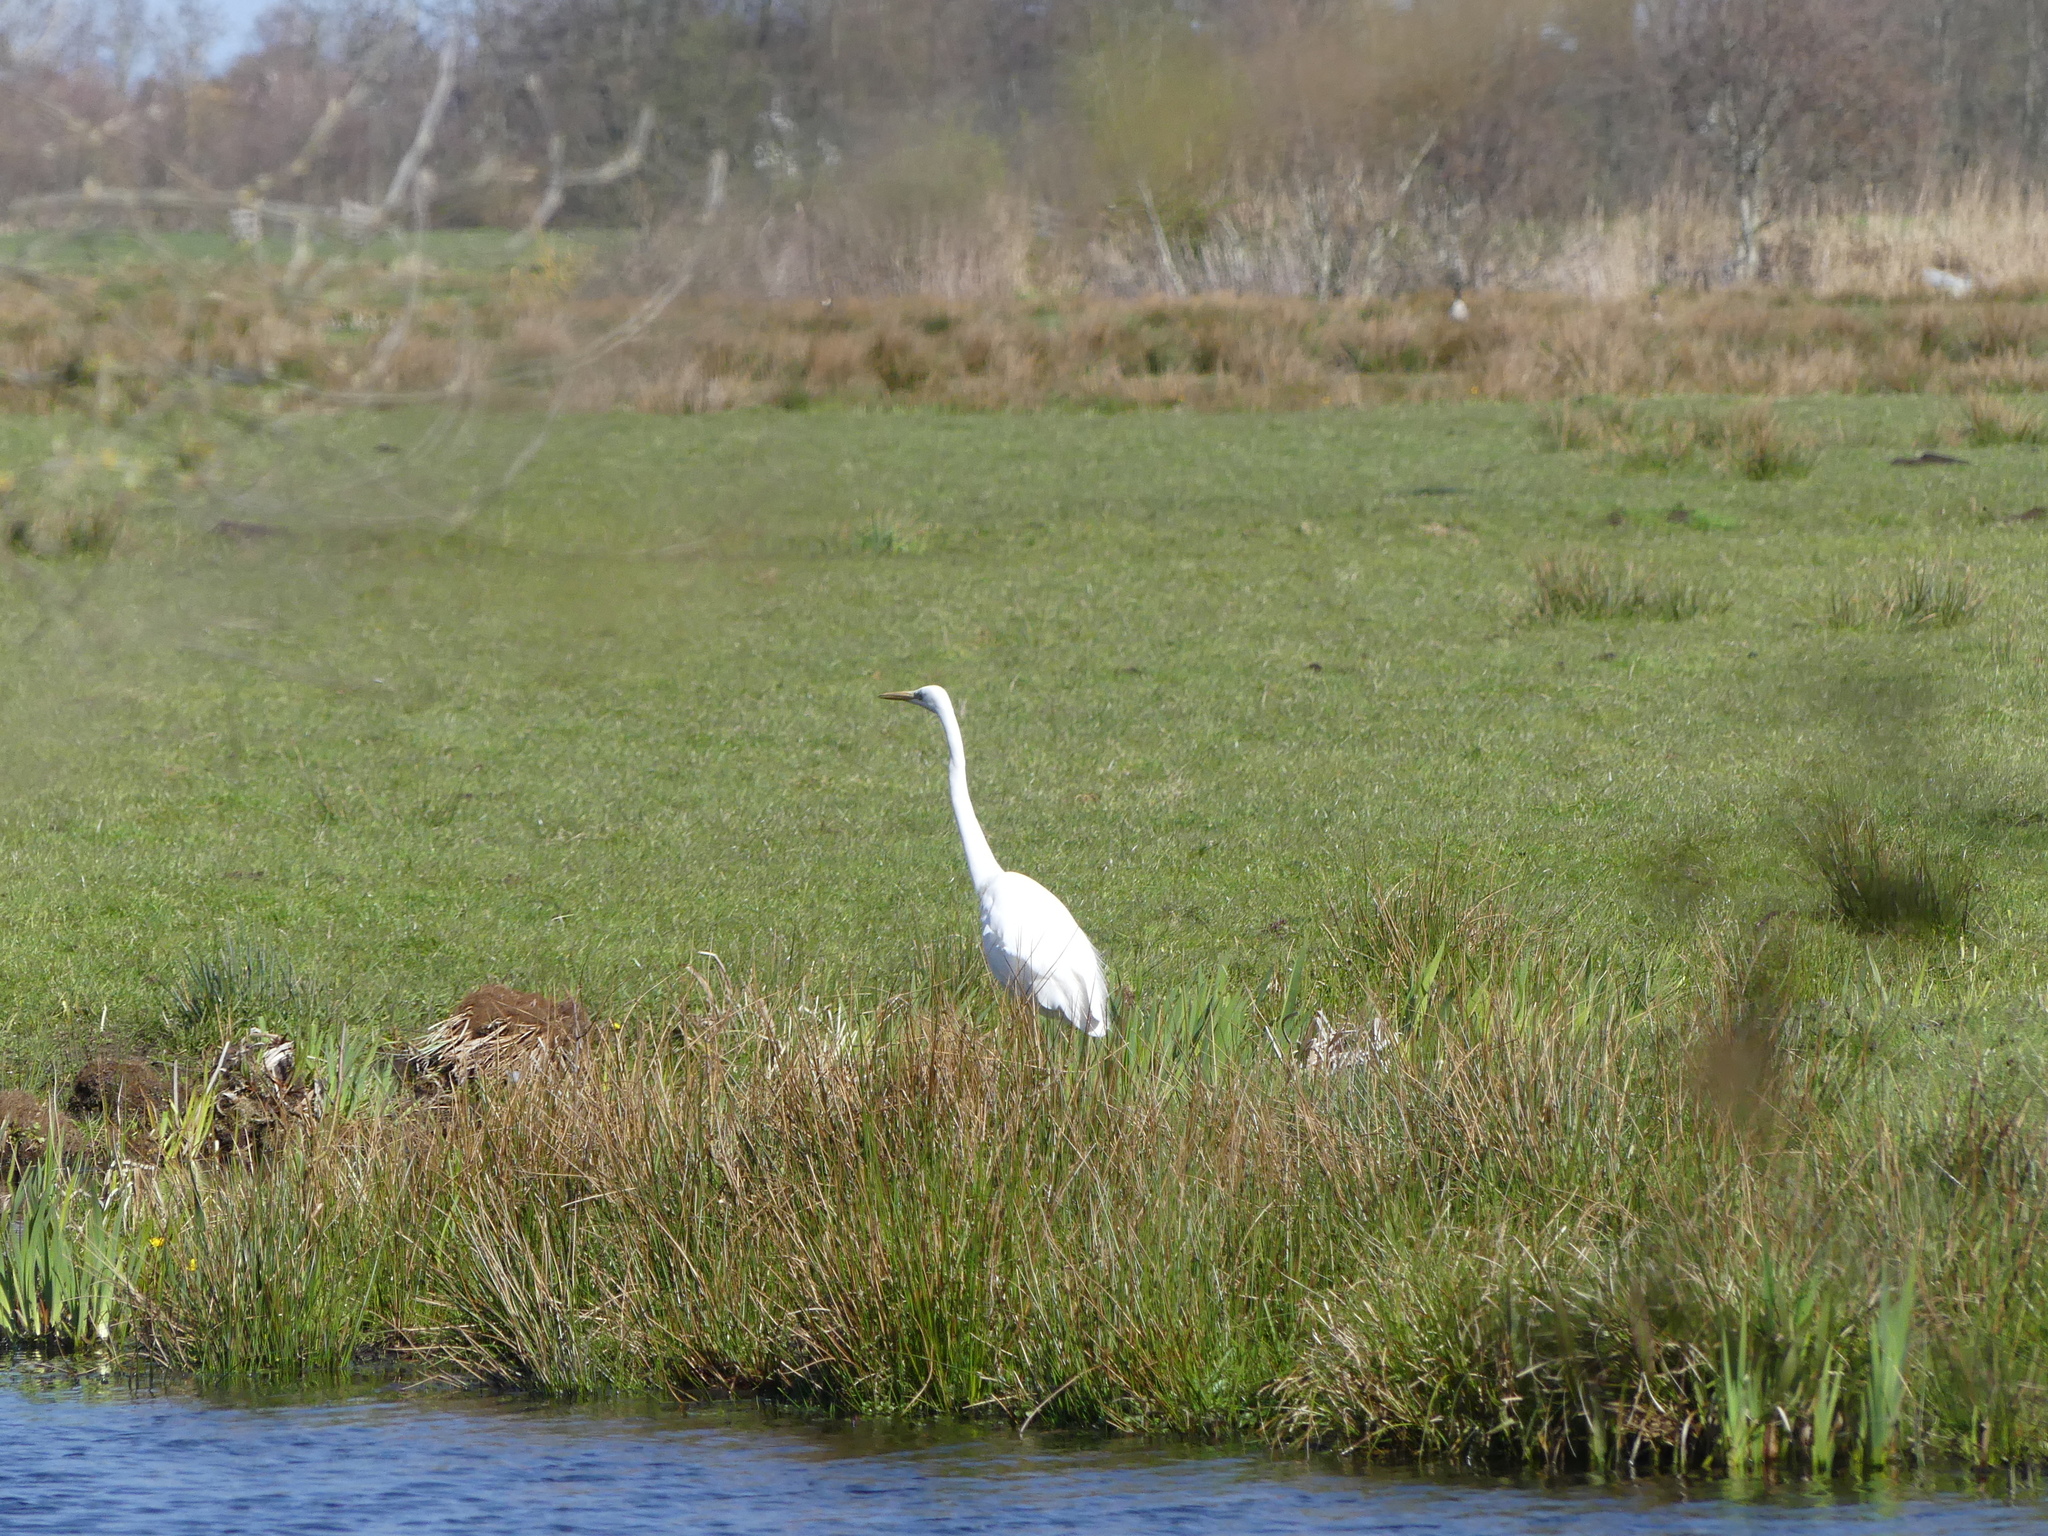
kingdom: Animalia
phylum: Chordata
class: Aves
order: Pelecaniformes
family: Ardeidae
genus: Ardea
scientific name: Ardea alba
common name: Great egret
